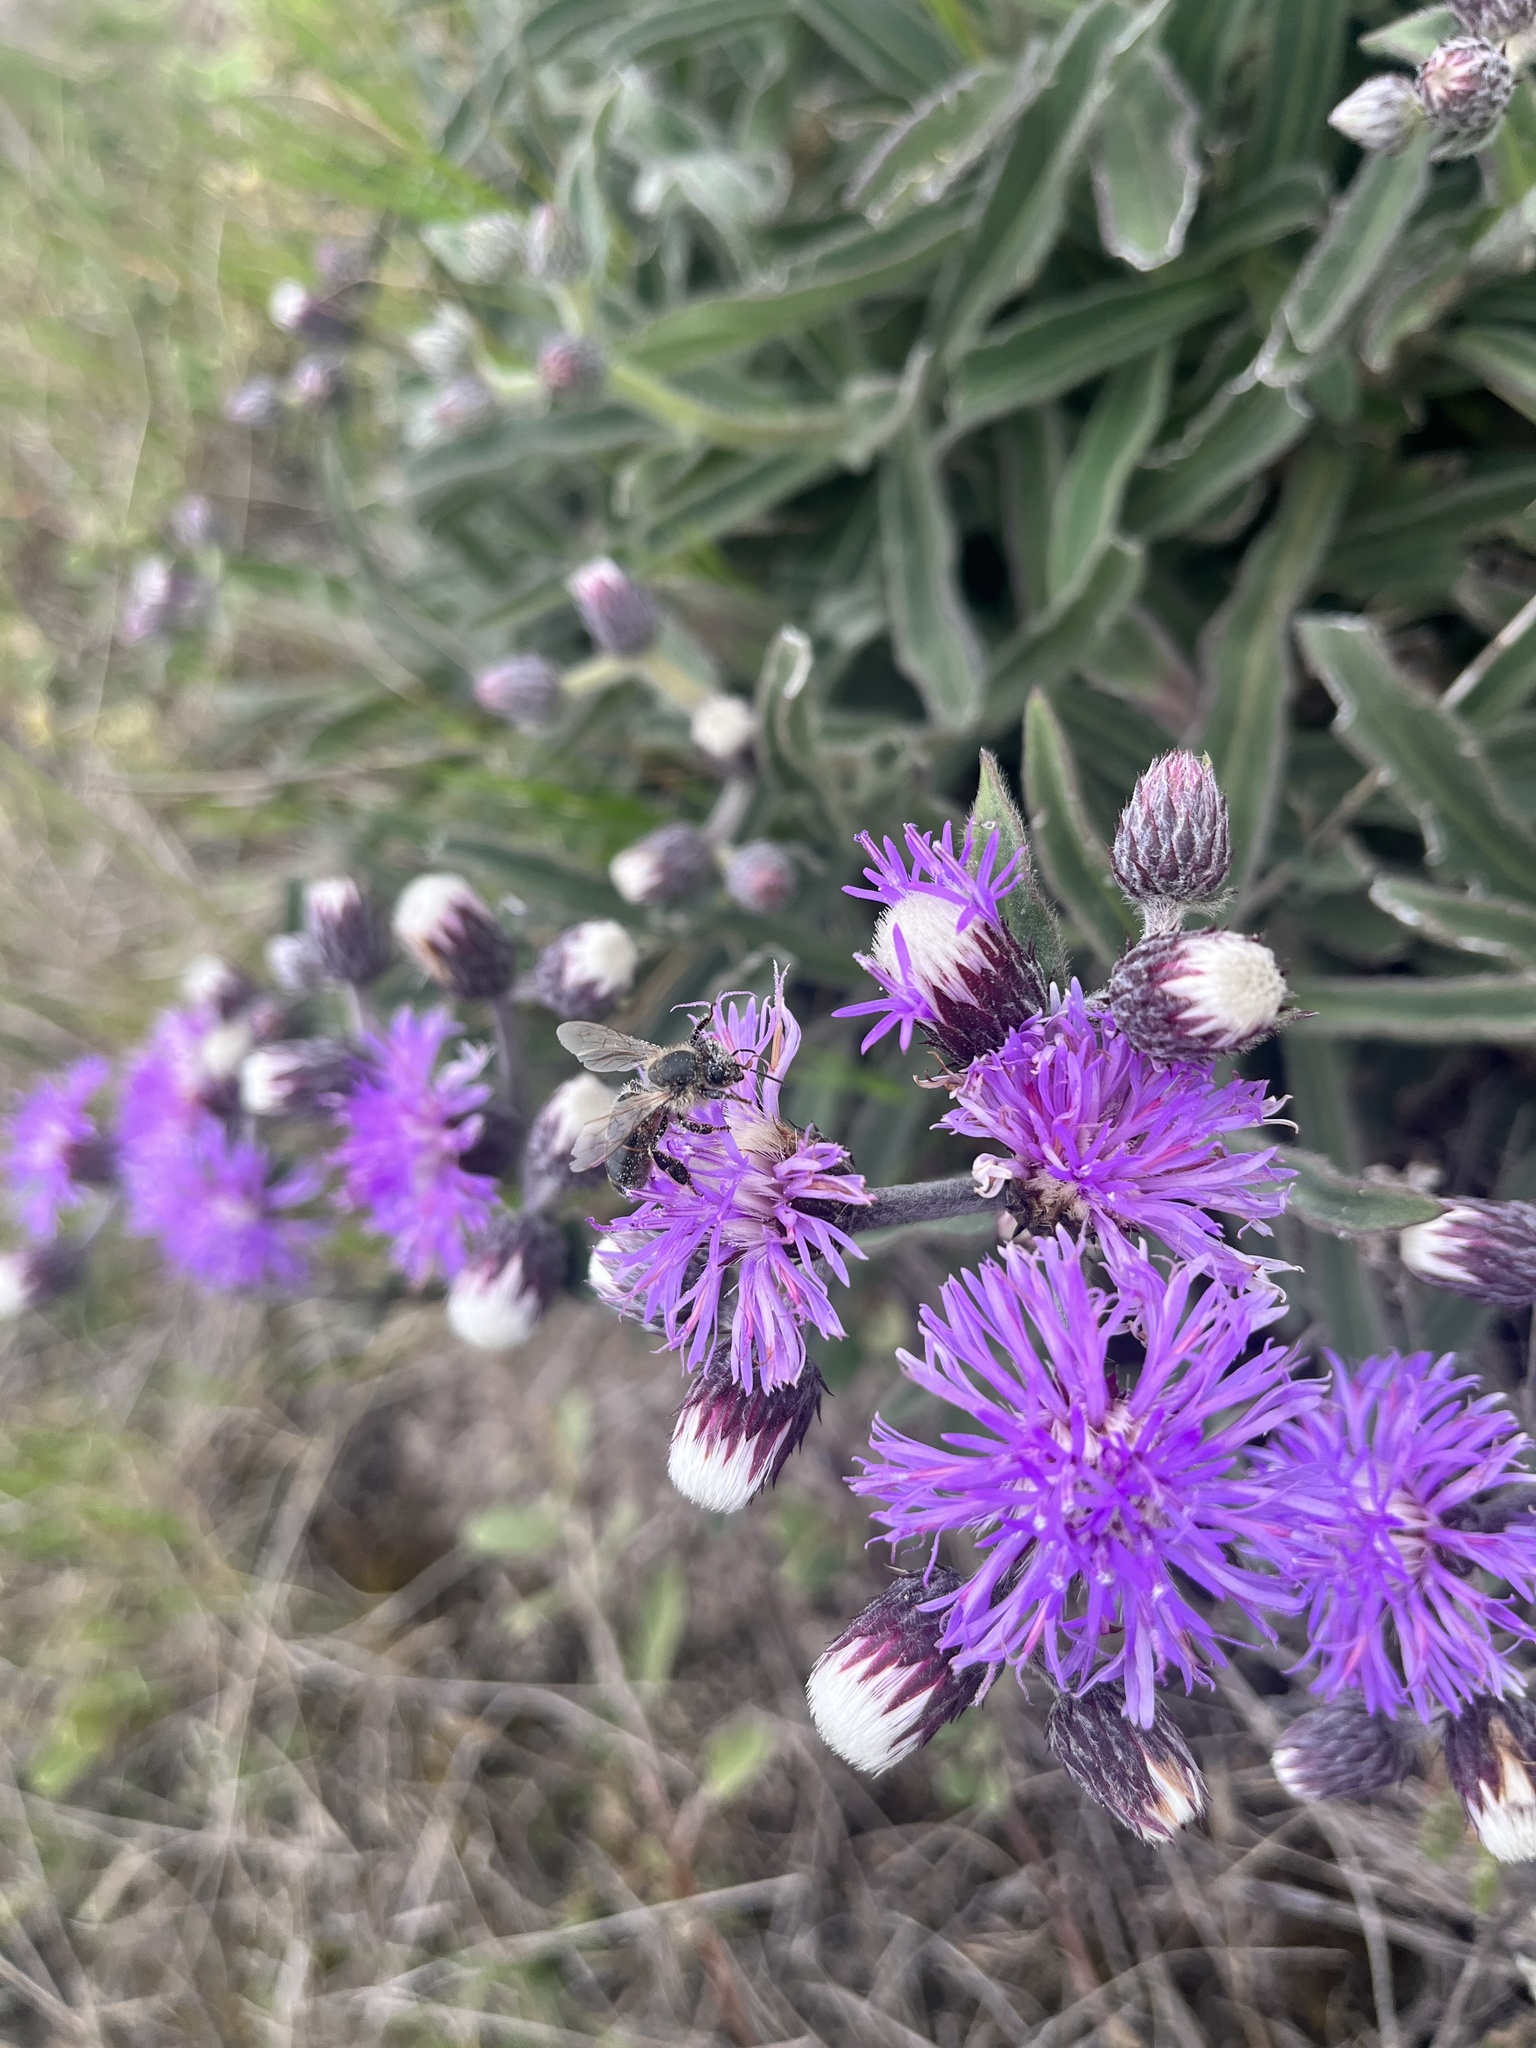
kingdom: Plantae
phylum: Tracheophyta
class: Magnoliopsida
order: Asterales
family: Asteraceae
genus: Chrysolaena
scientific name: Chrysolaena flexuosa
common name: Zig-zag vernonia
